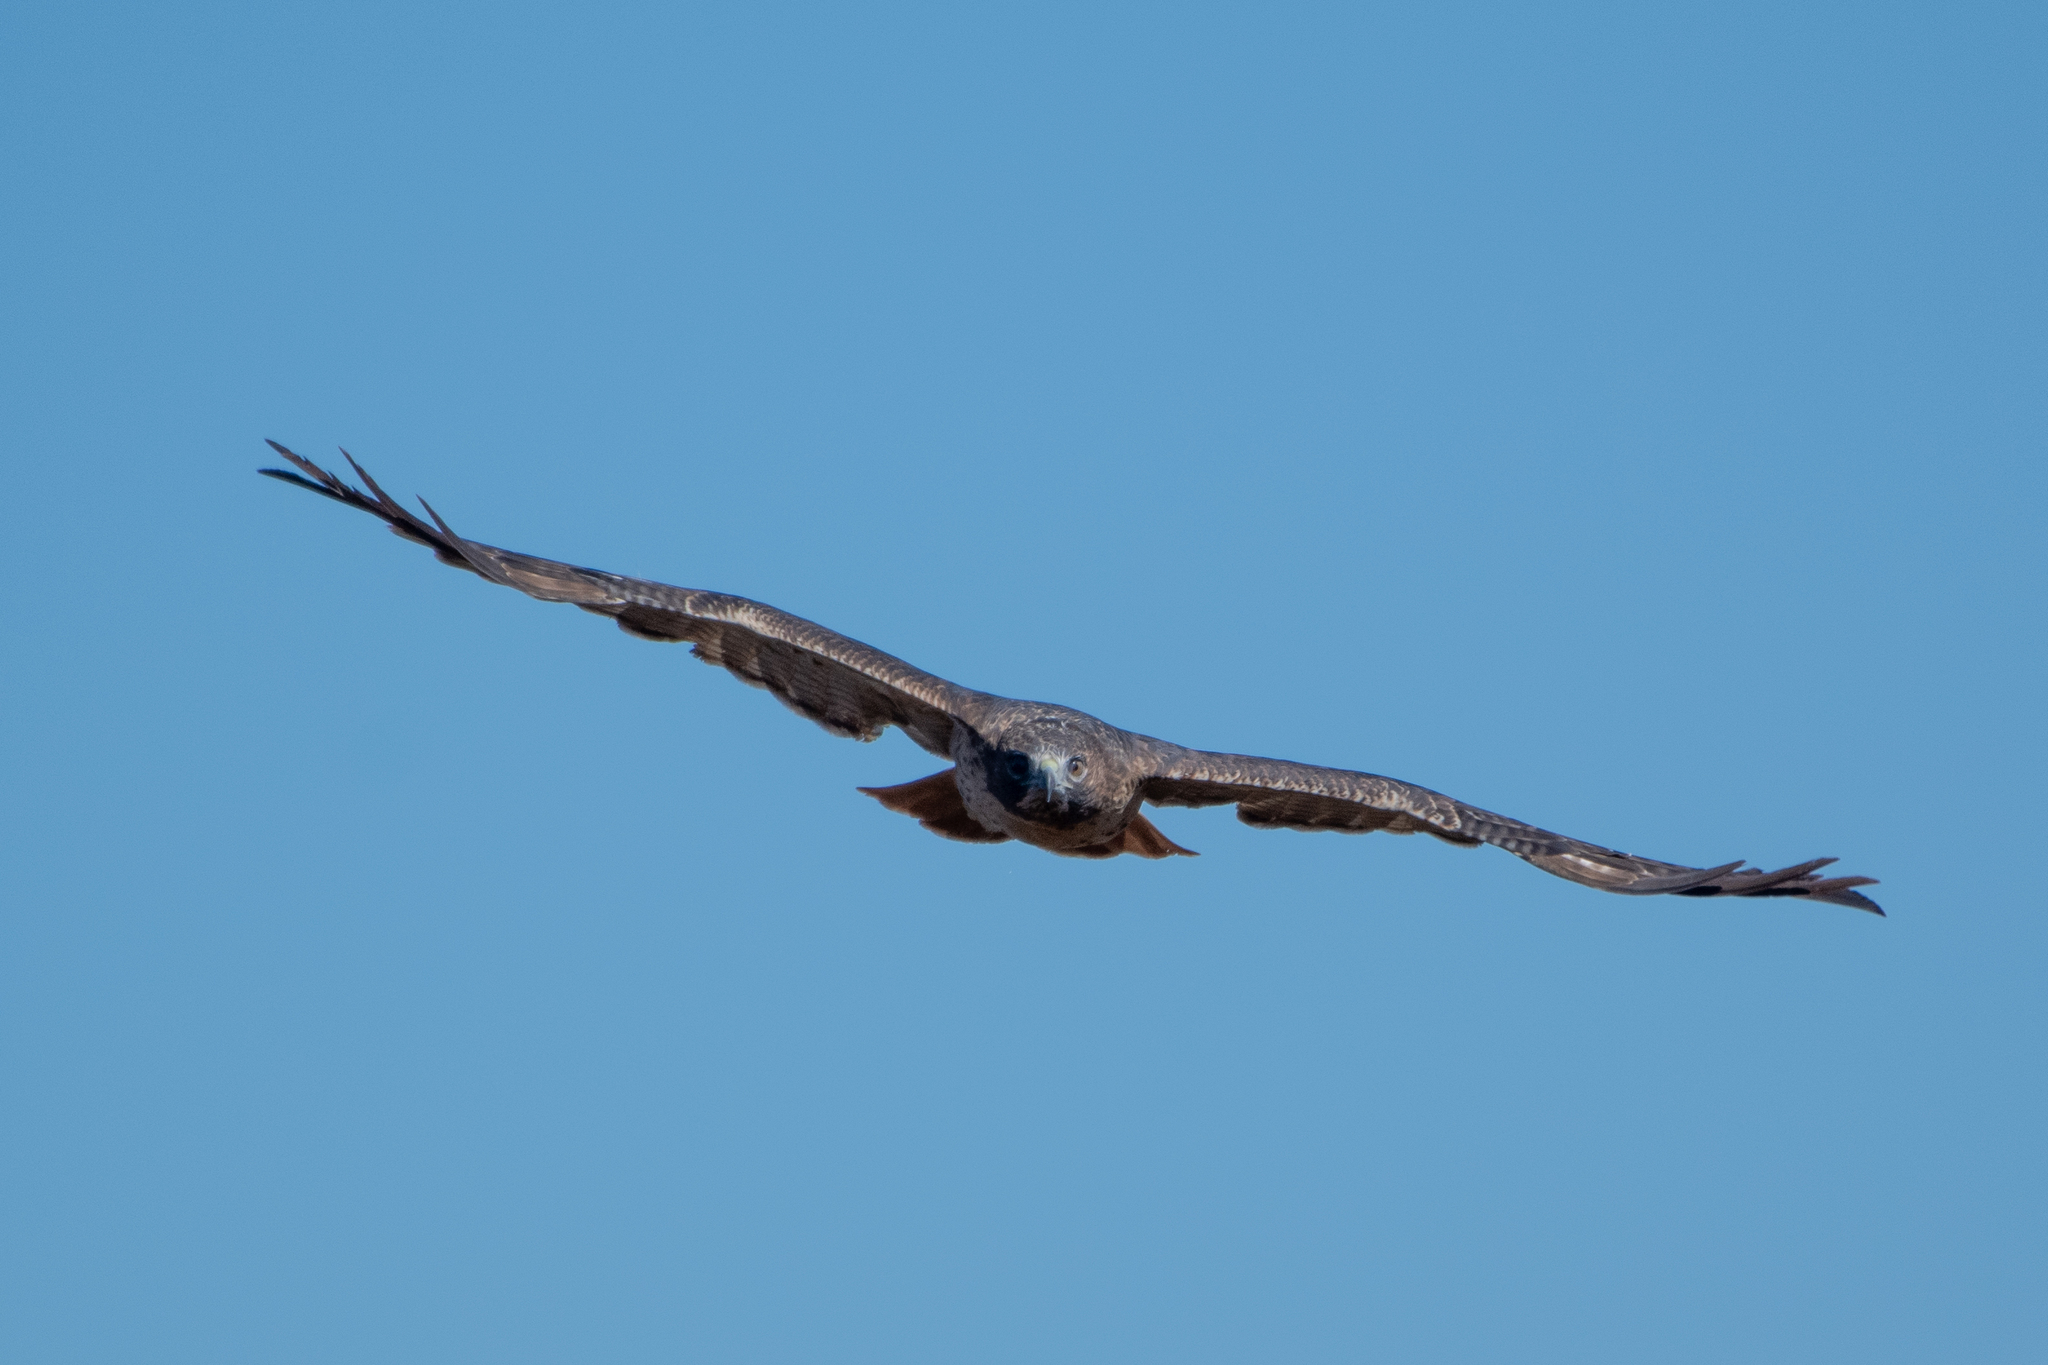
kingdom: Animalia
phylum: Chordata
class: Aves
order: Accipitriformes
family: Accipitridae
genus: Buteo
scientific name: Buteo jamaicensis
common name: Red-tailed hawk
